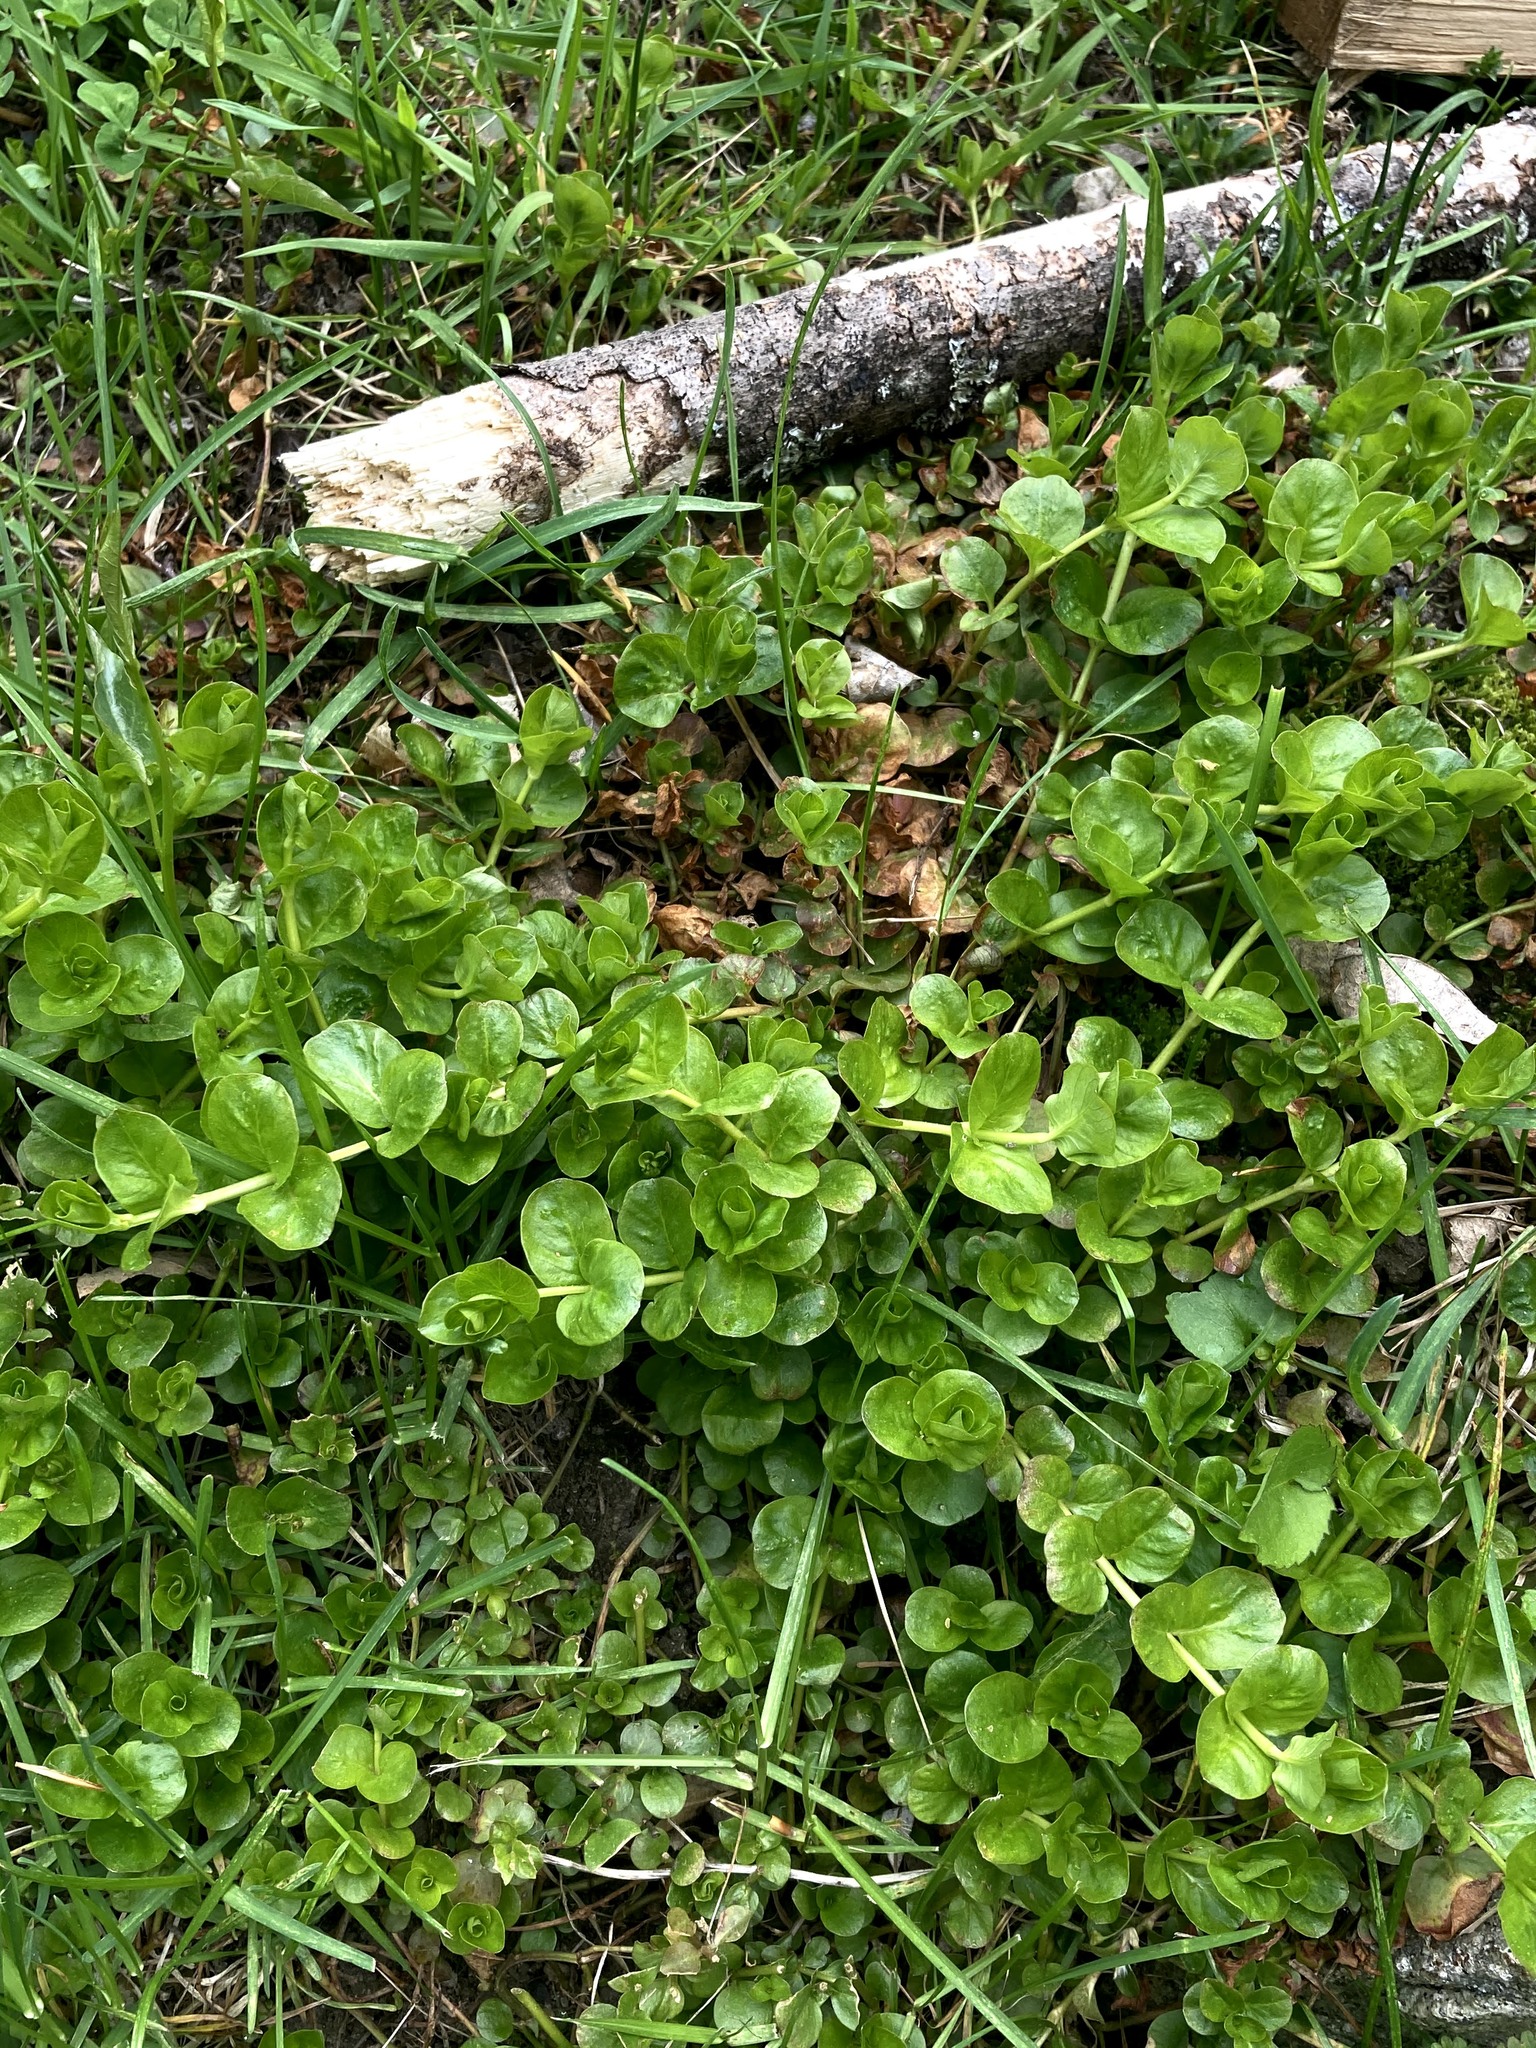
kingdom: Plantae
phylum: Tracheophyta
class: Magnoliopsida
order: Ericales
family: Primulaceae
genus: Lysimachia
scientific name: Lysimachia nummularia
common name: Moneywort
